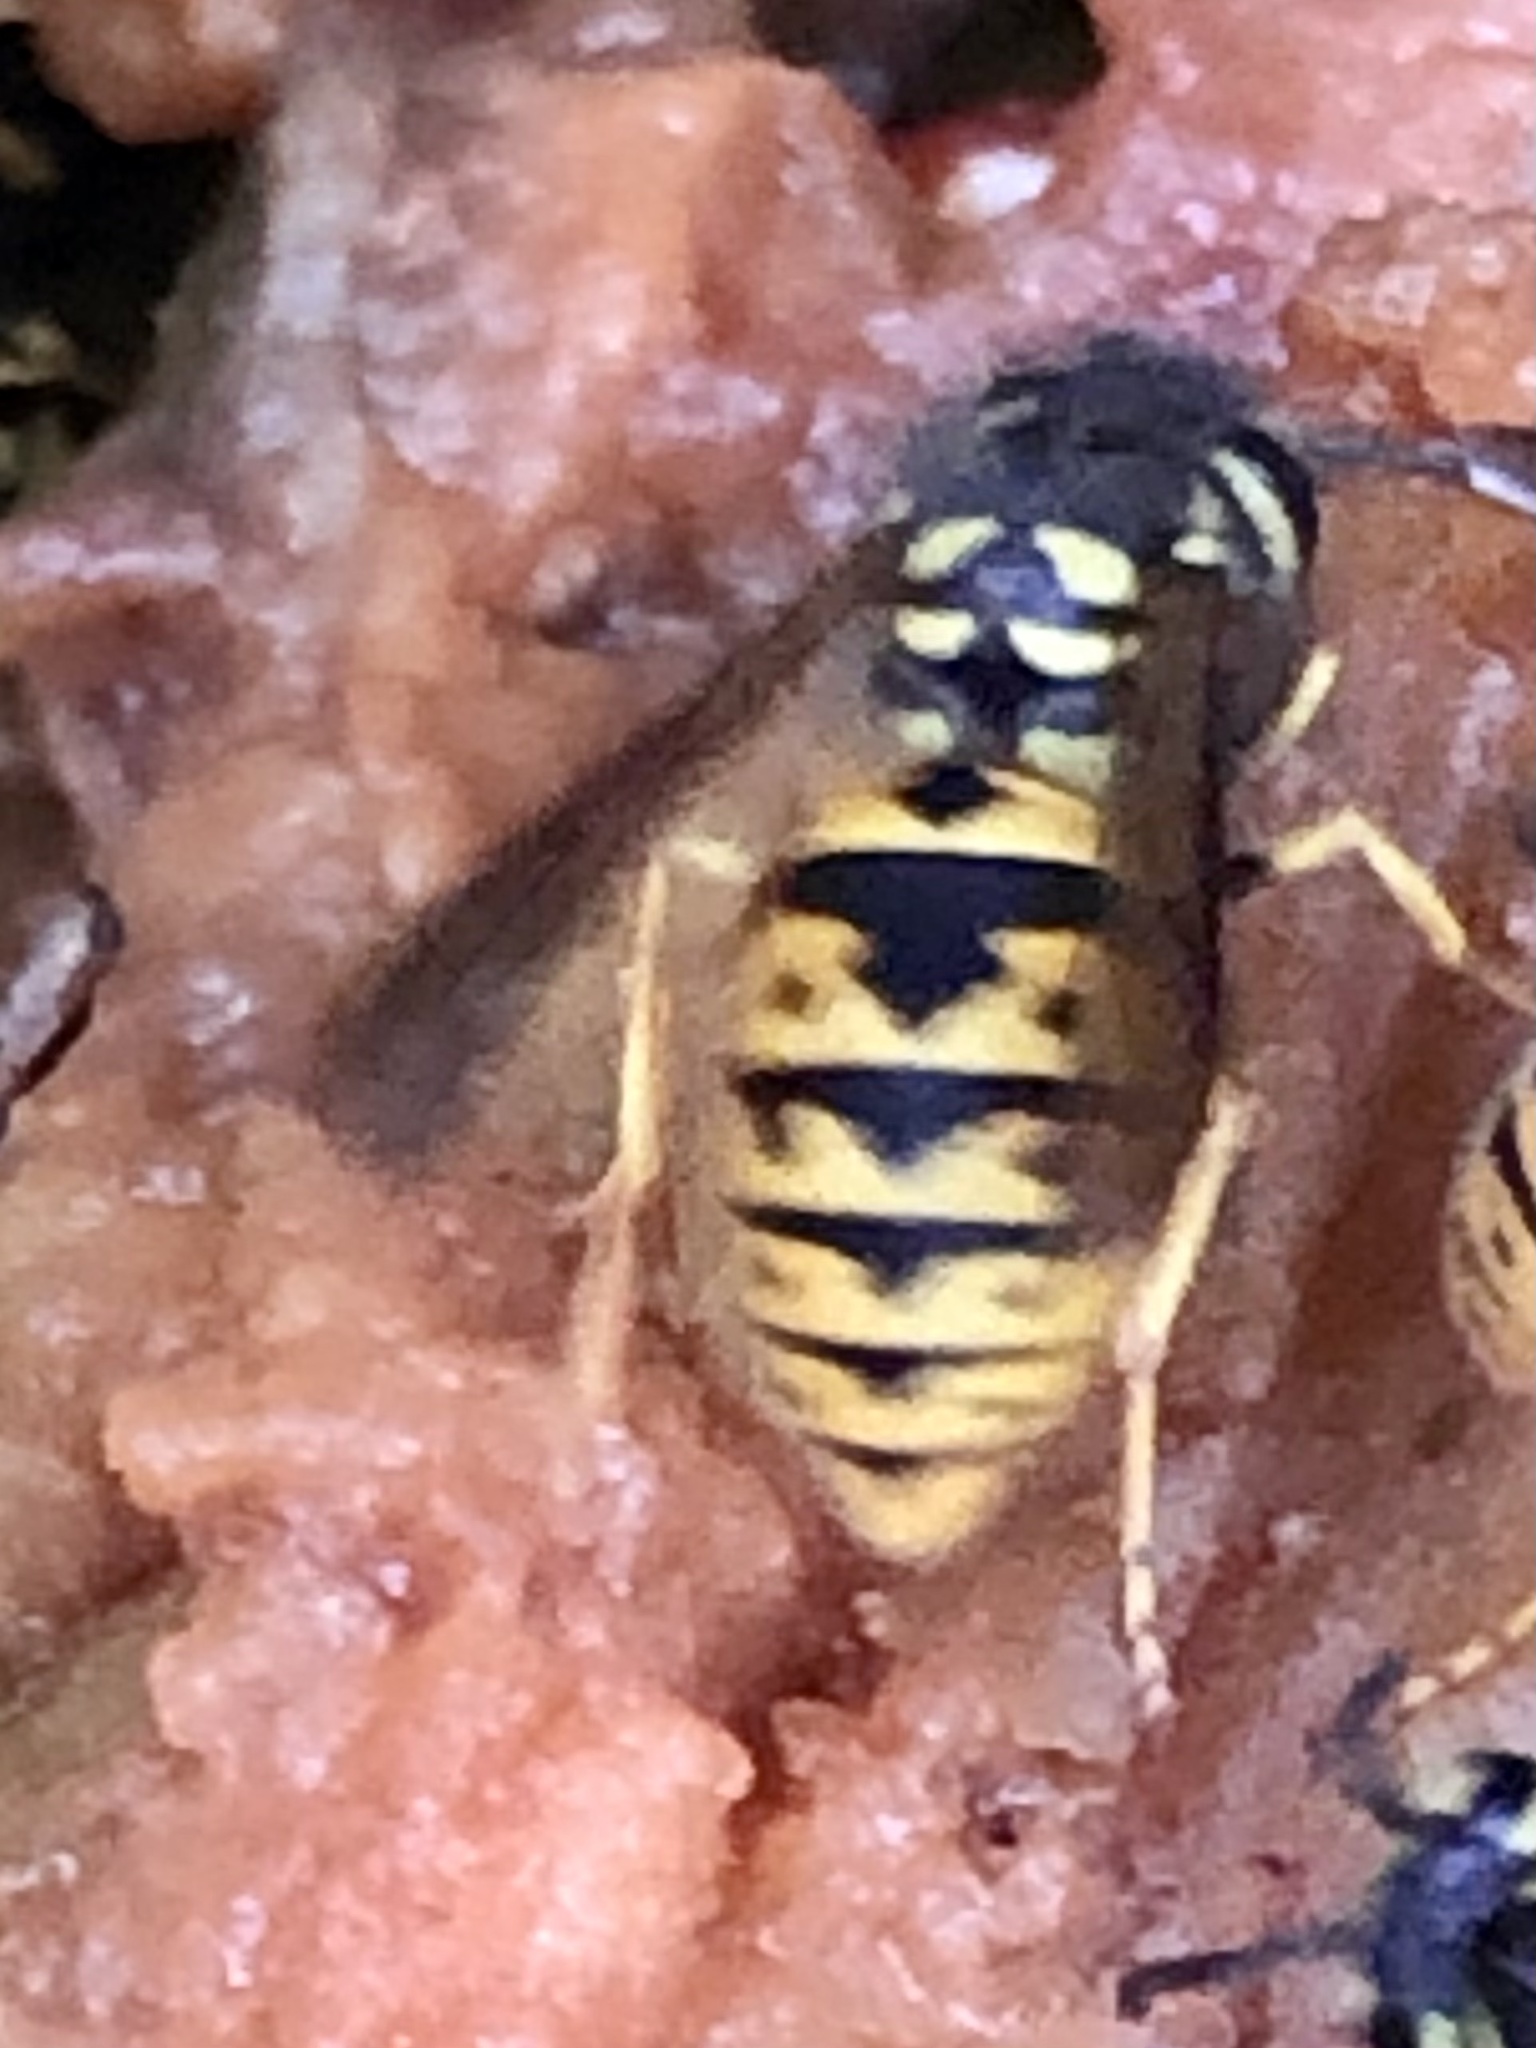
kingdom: Animalia
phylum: Arthropoda
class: Insecta
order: Hymenoptera
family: Vespidae
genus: Vespula
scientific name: Vespula germanica
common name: German wasp
